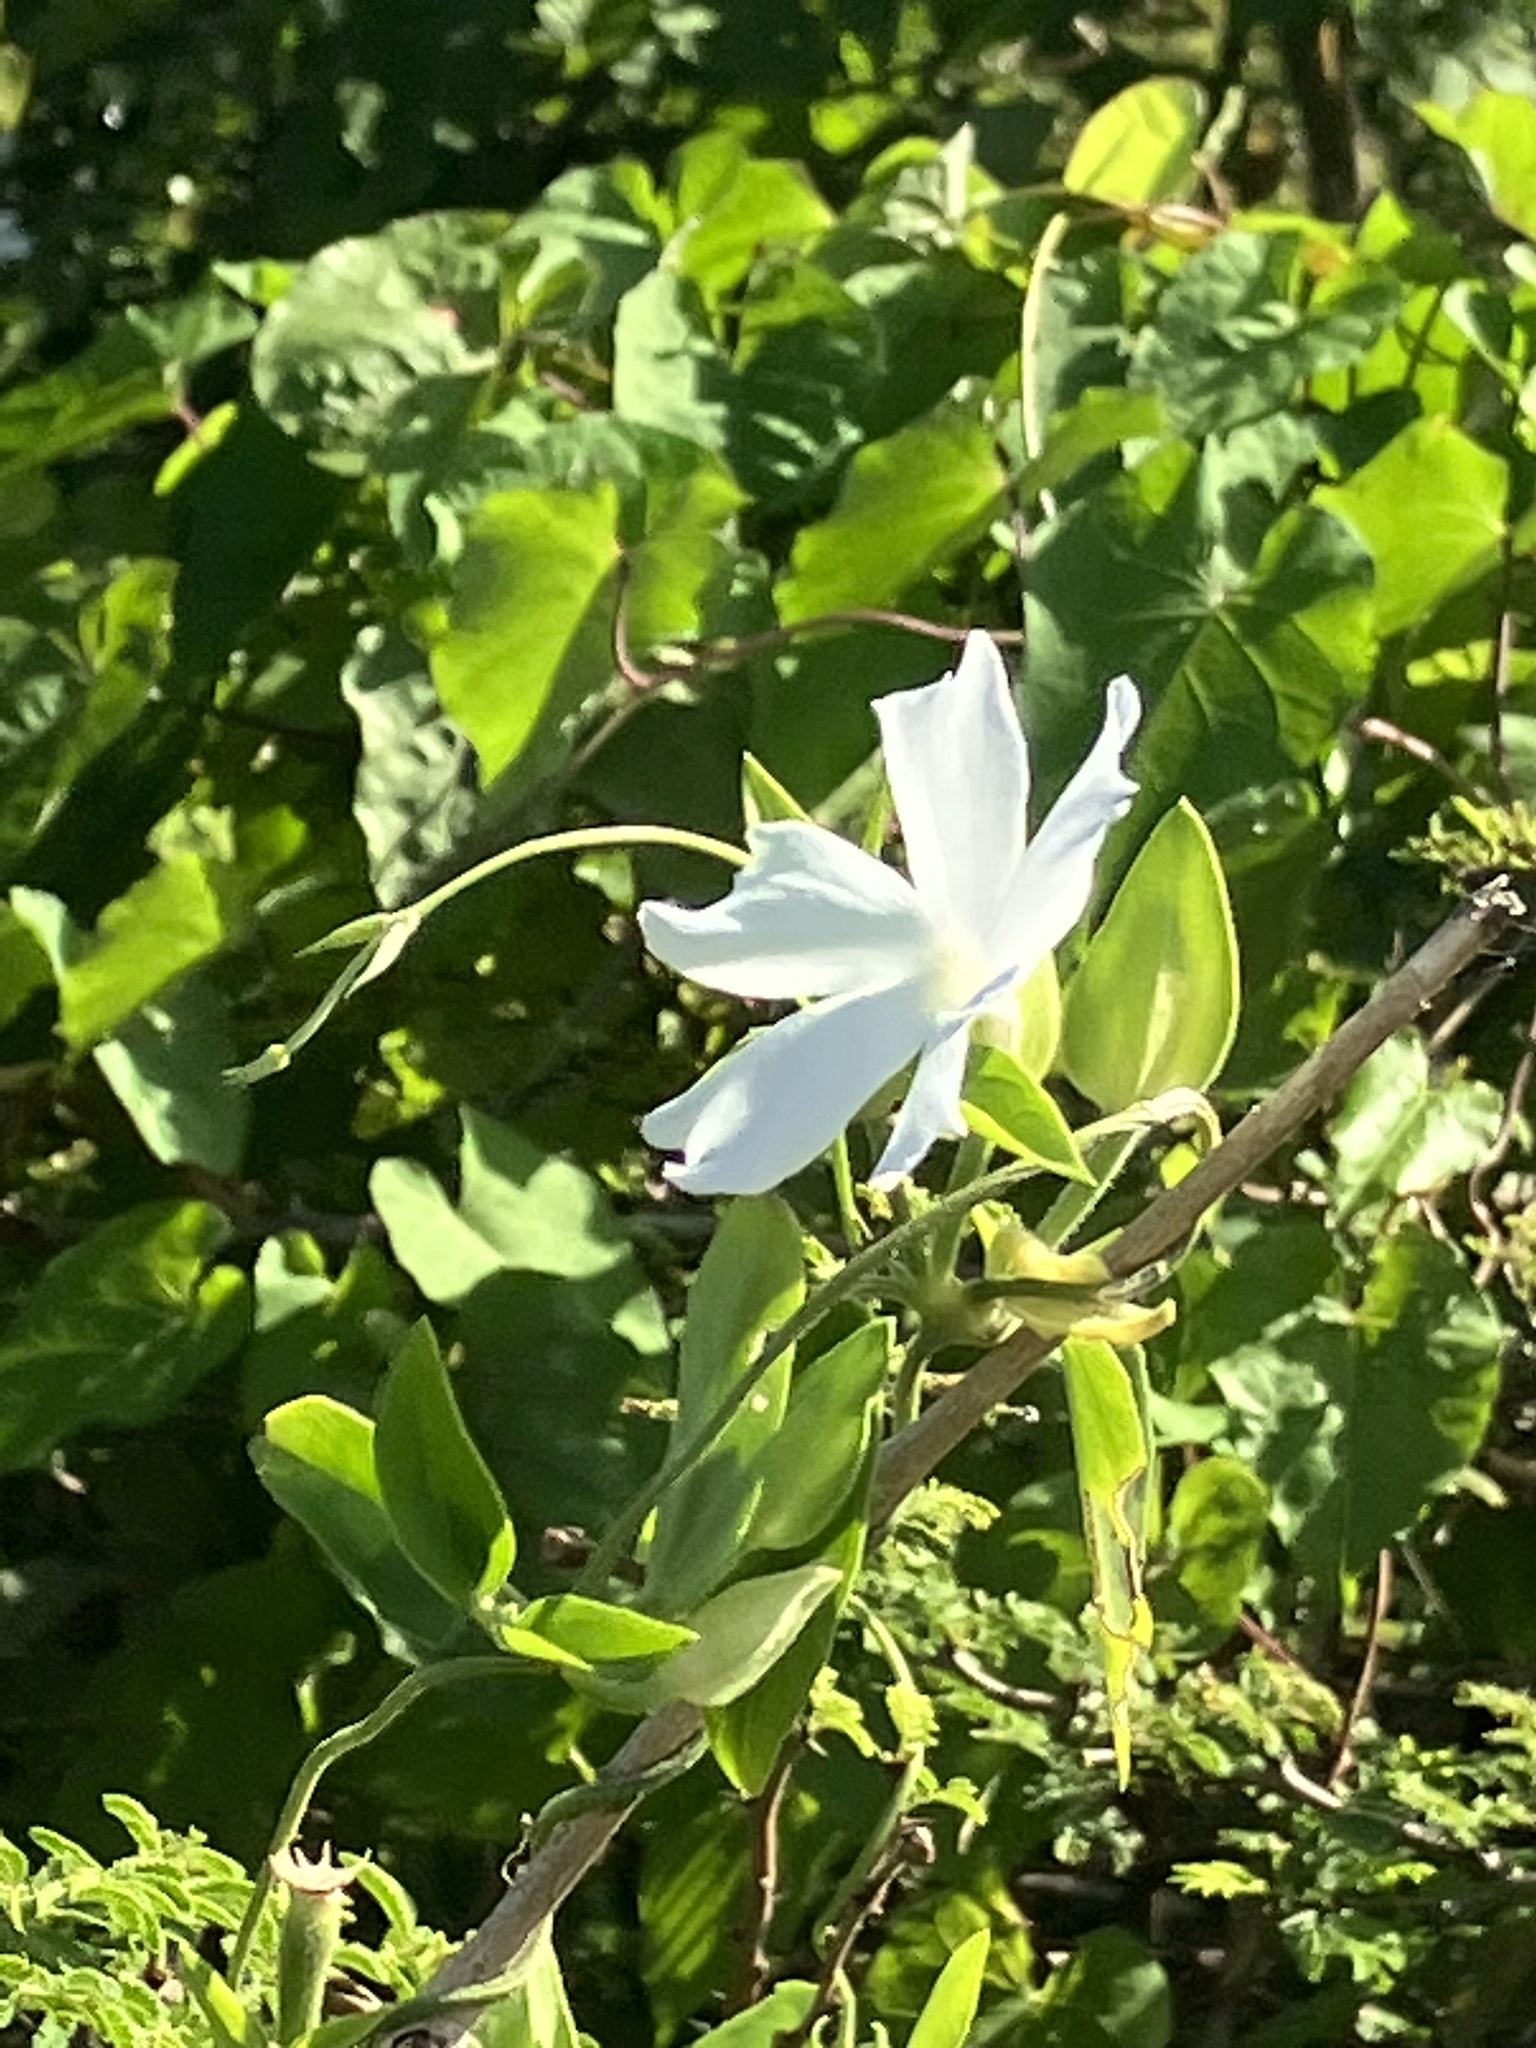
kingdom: Plantae
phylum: Tracheophyta
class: Magnoliopsida
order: Lamiales
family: Acanthaceae
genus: Thunbergia
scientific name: Thunbergia fragrans
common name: Whitelady
